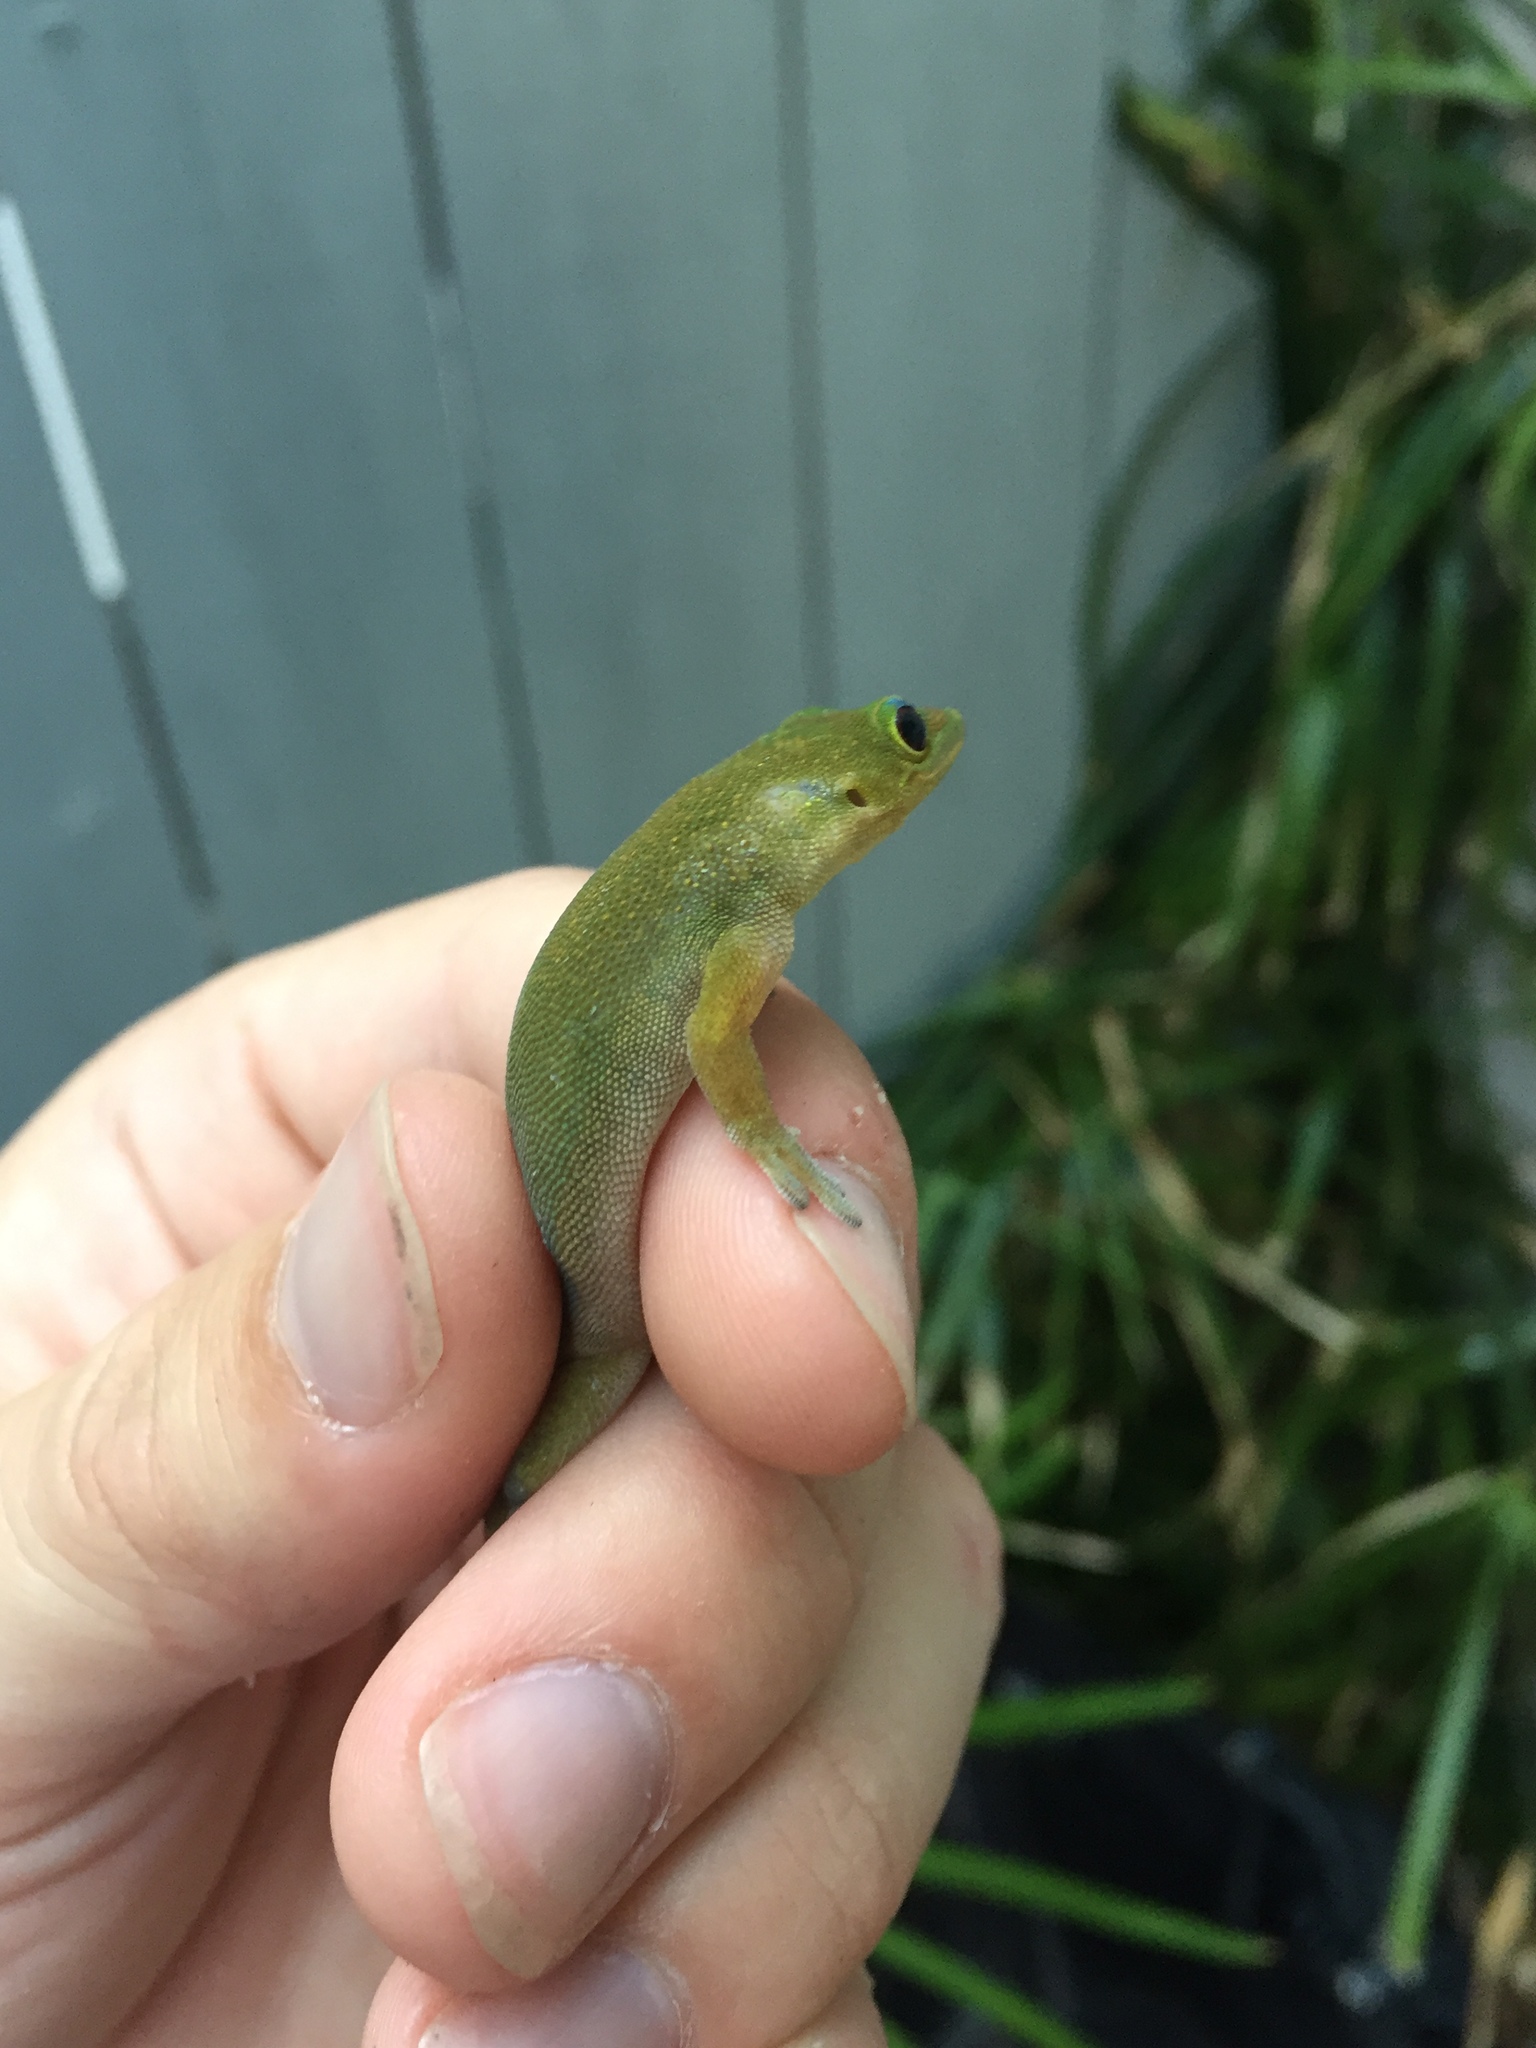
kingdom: Animalia
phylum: Chordata
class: Squamata
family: Gekkonidae
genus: Phelsuma
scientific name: Phelsuma laticauda
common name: Gold dust day gecko
